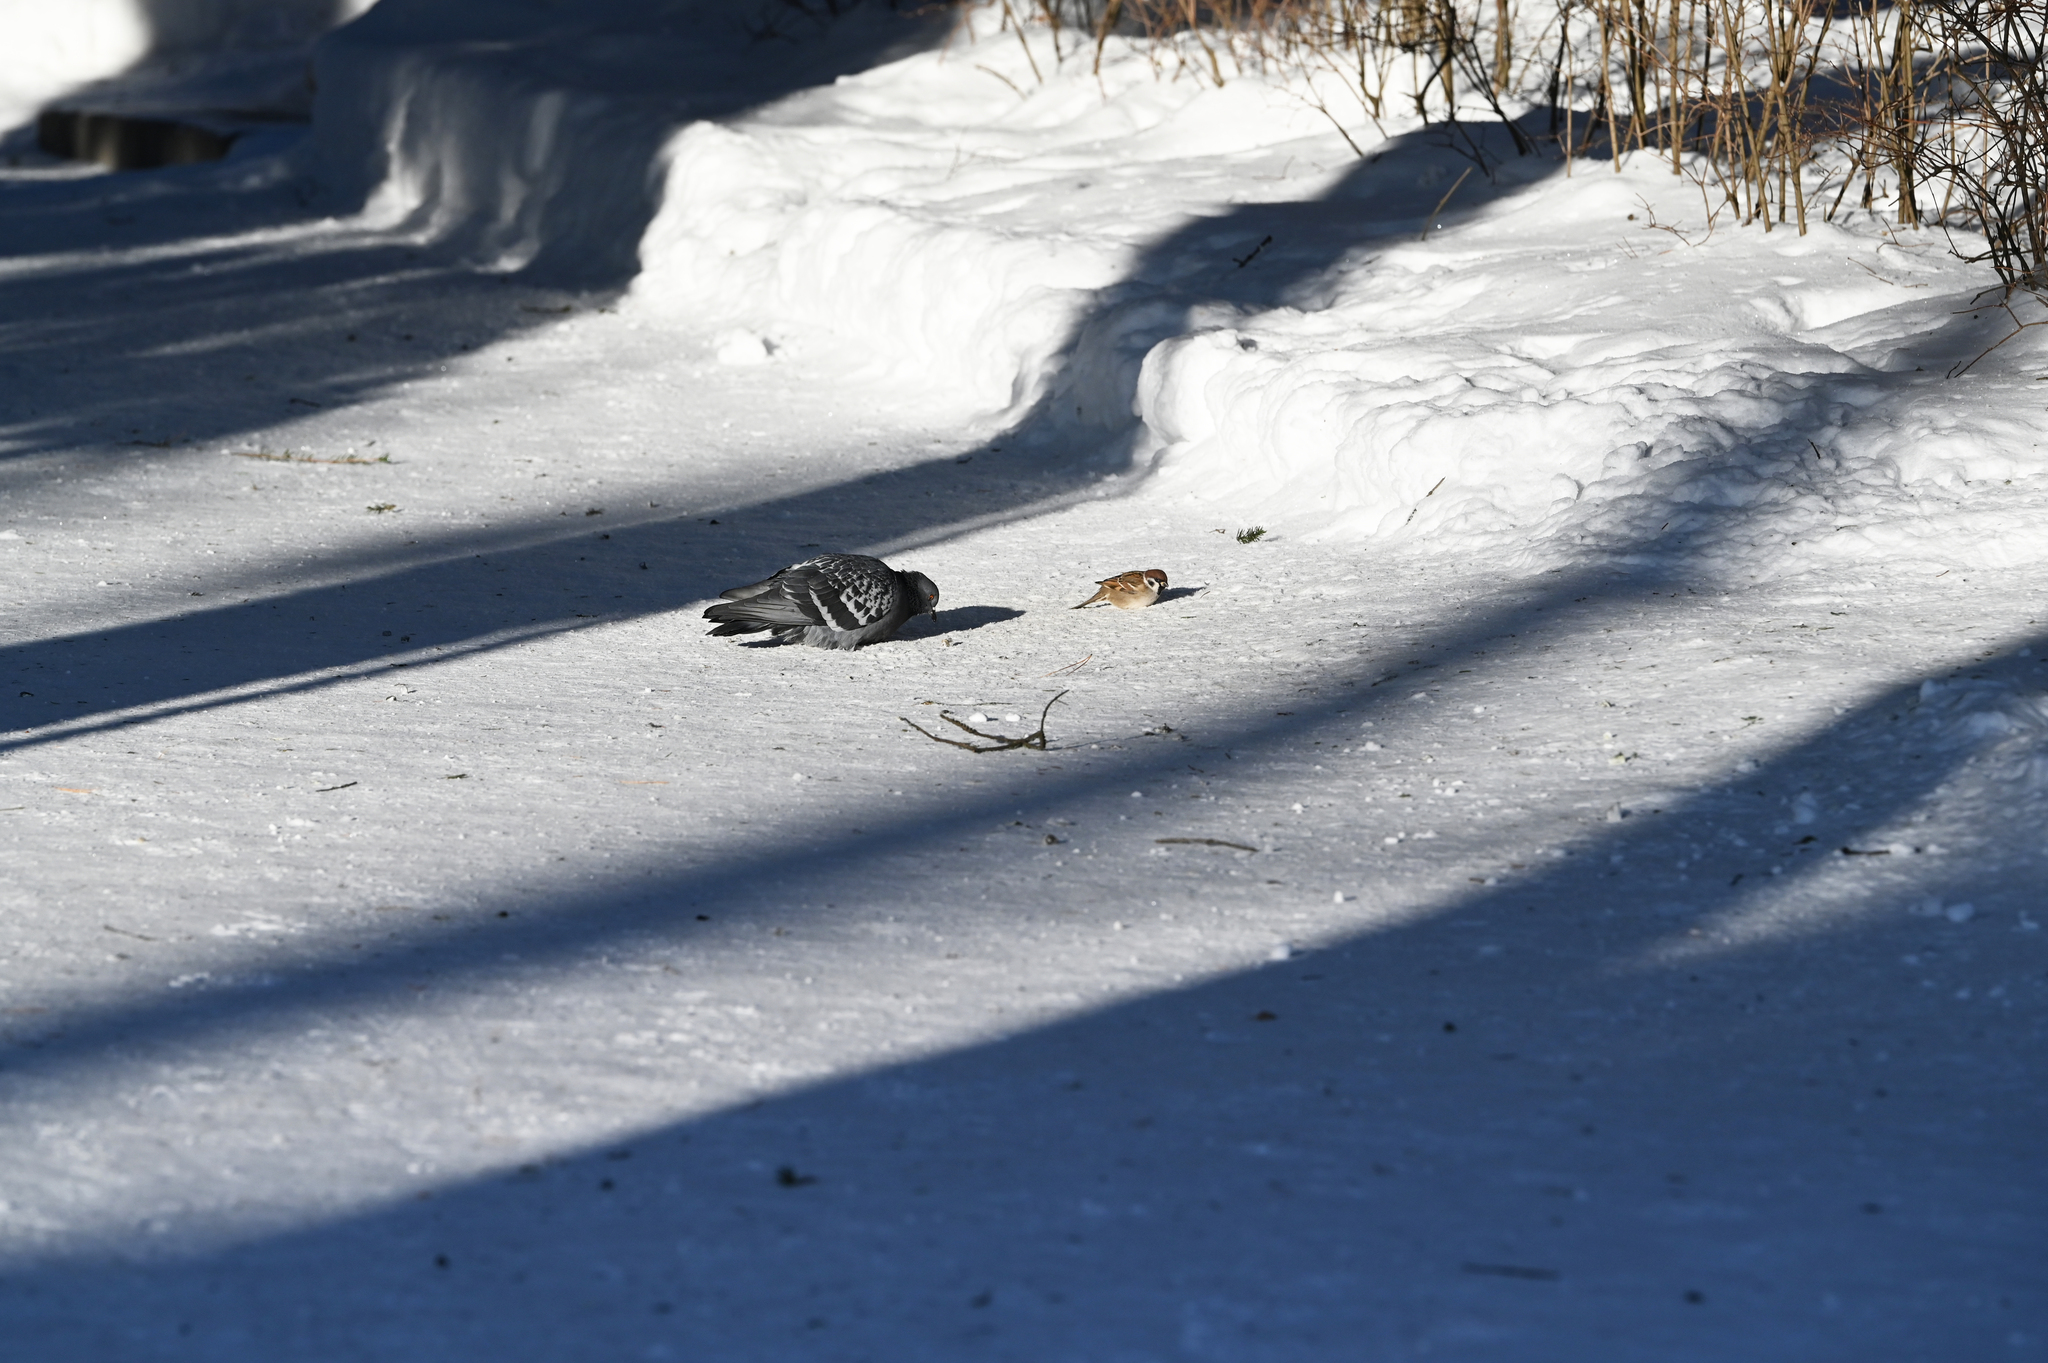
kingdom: Animalia
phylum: Chordata
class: Aves
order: Columbiformes
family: Columbidae
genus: Columba
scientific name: Columba livia
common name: Rock pigeon
